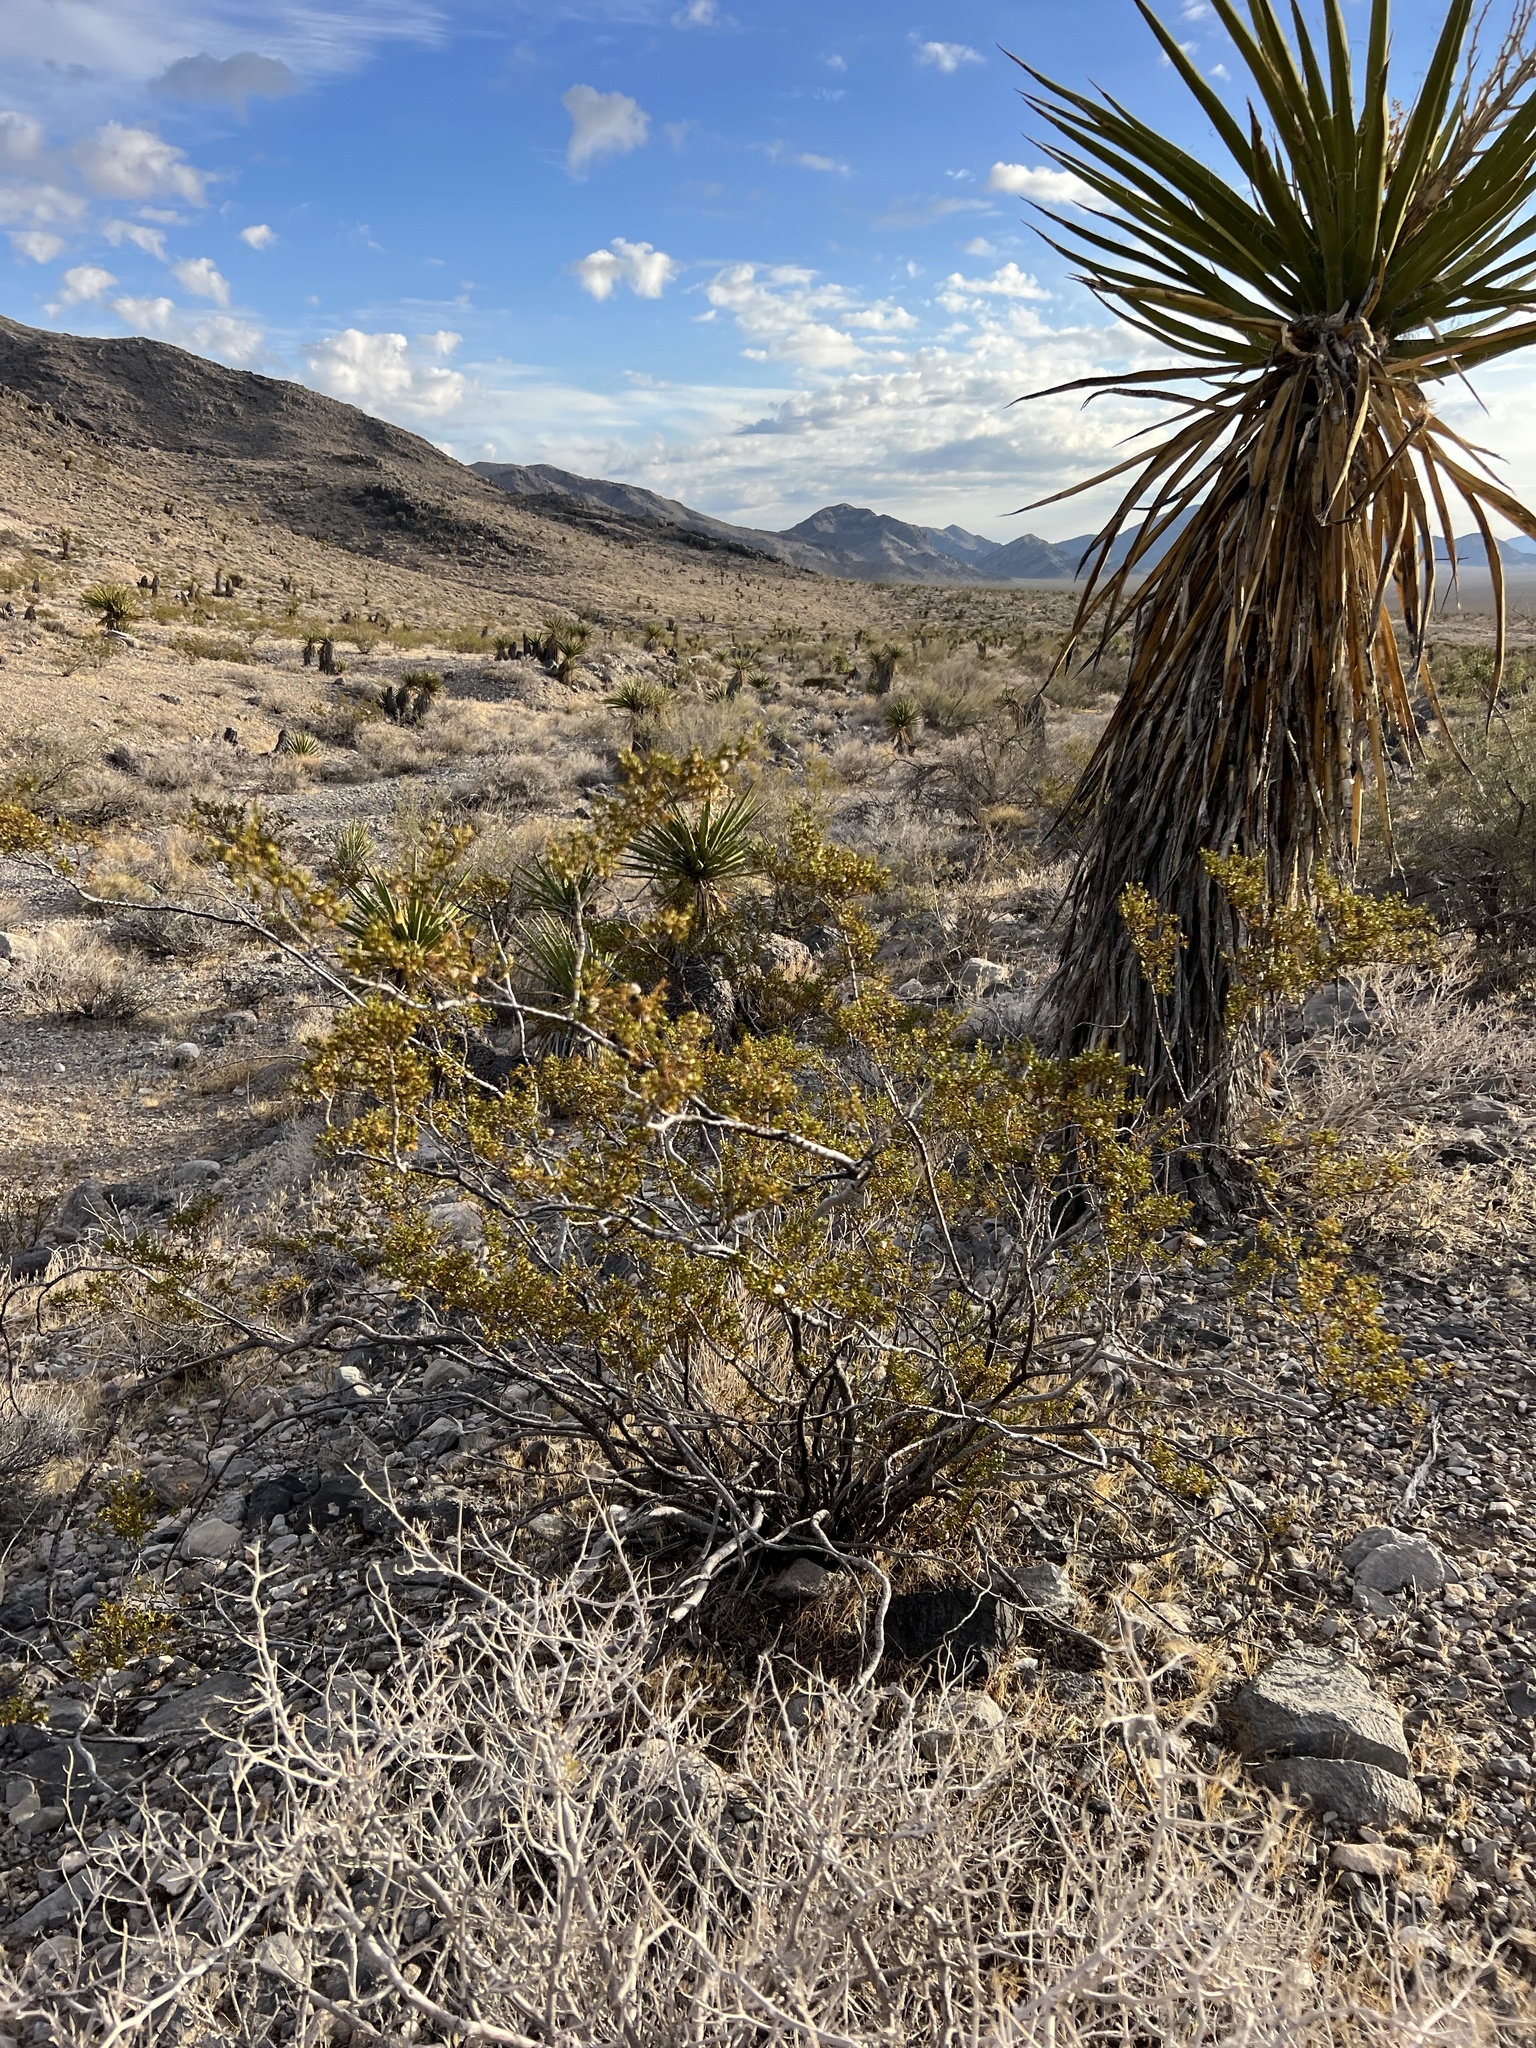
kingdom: Plantae
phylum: Tracheophyta
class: Magnoliopsida
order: Zygophyllales
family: Zygophyllaceae
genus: Larrea
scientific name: Larrea tridentata
